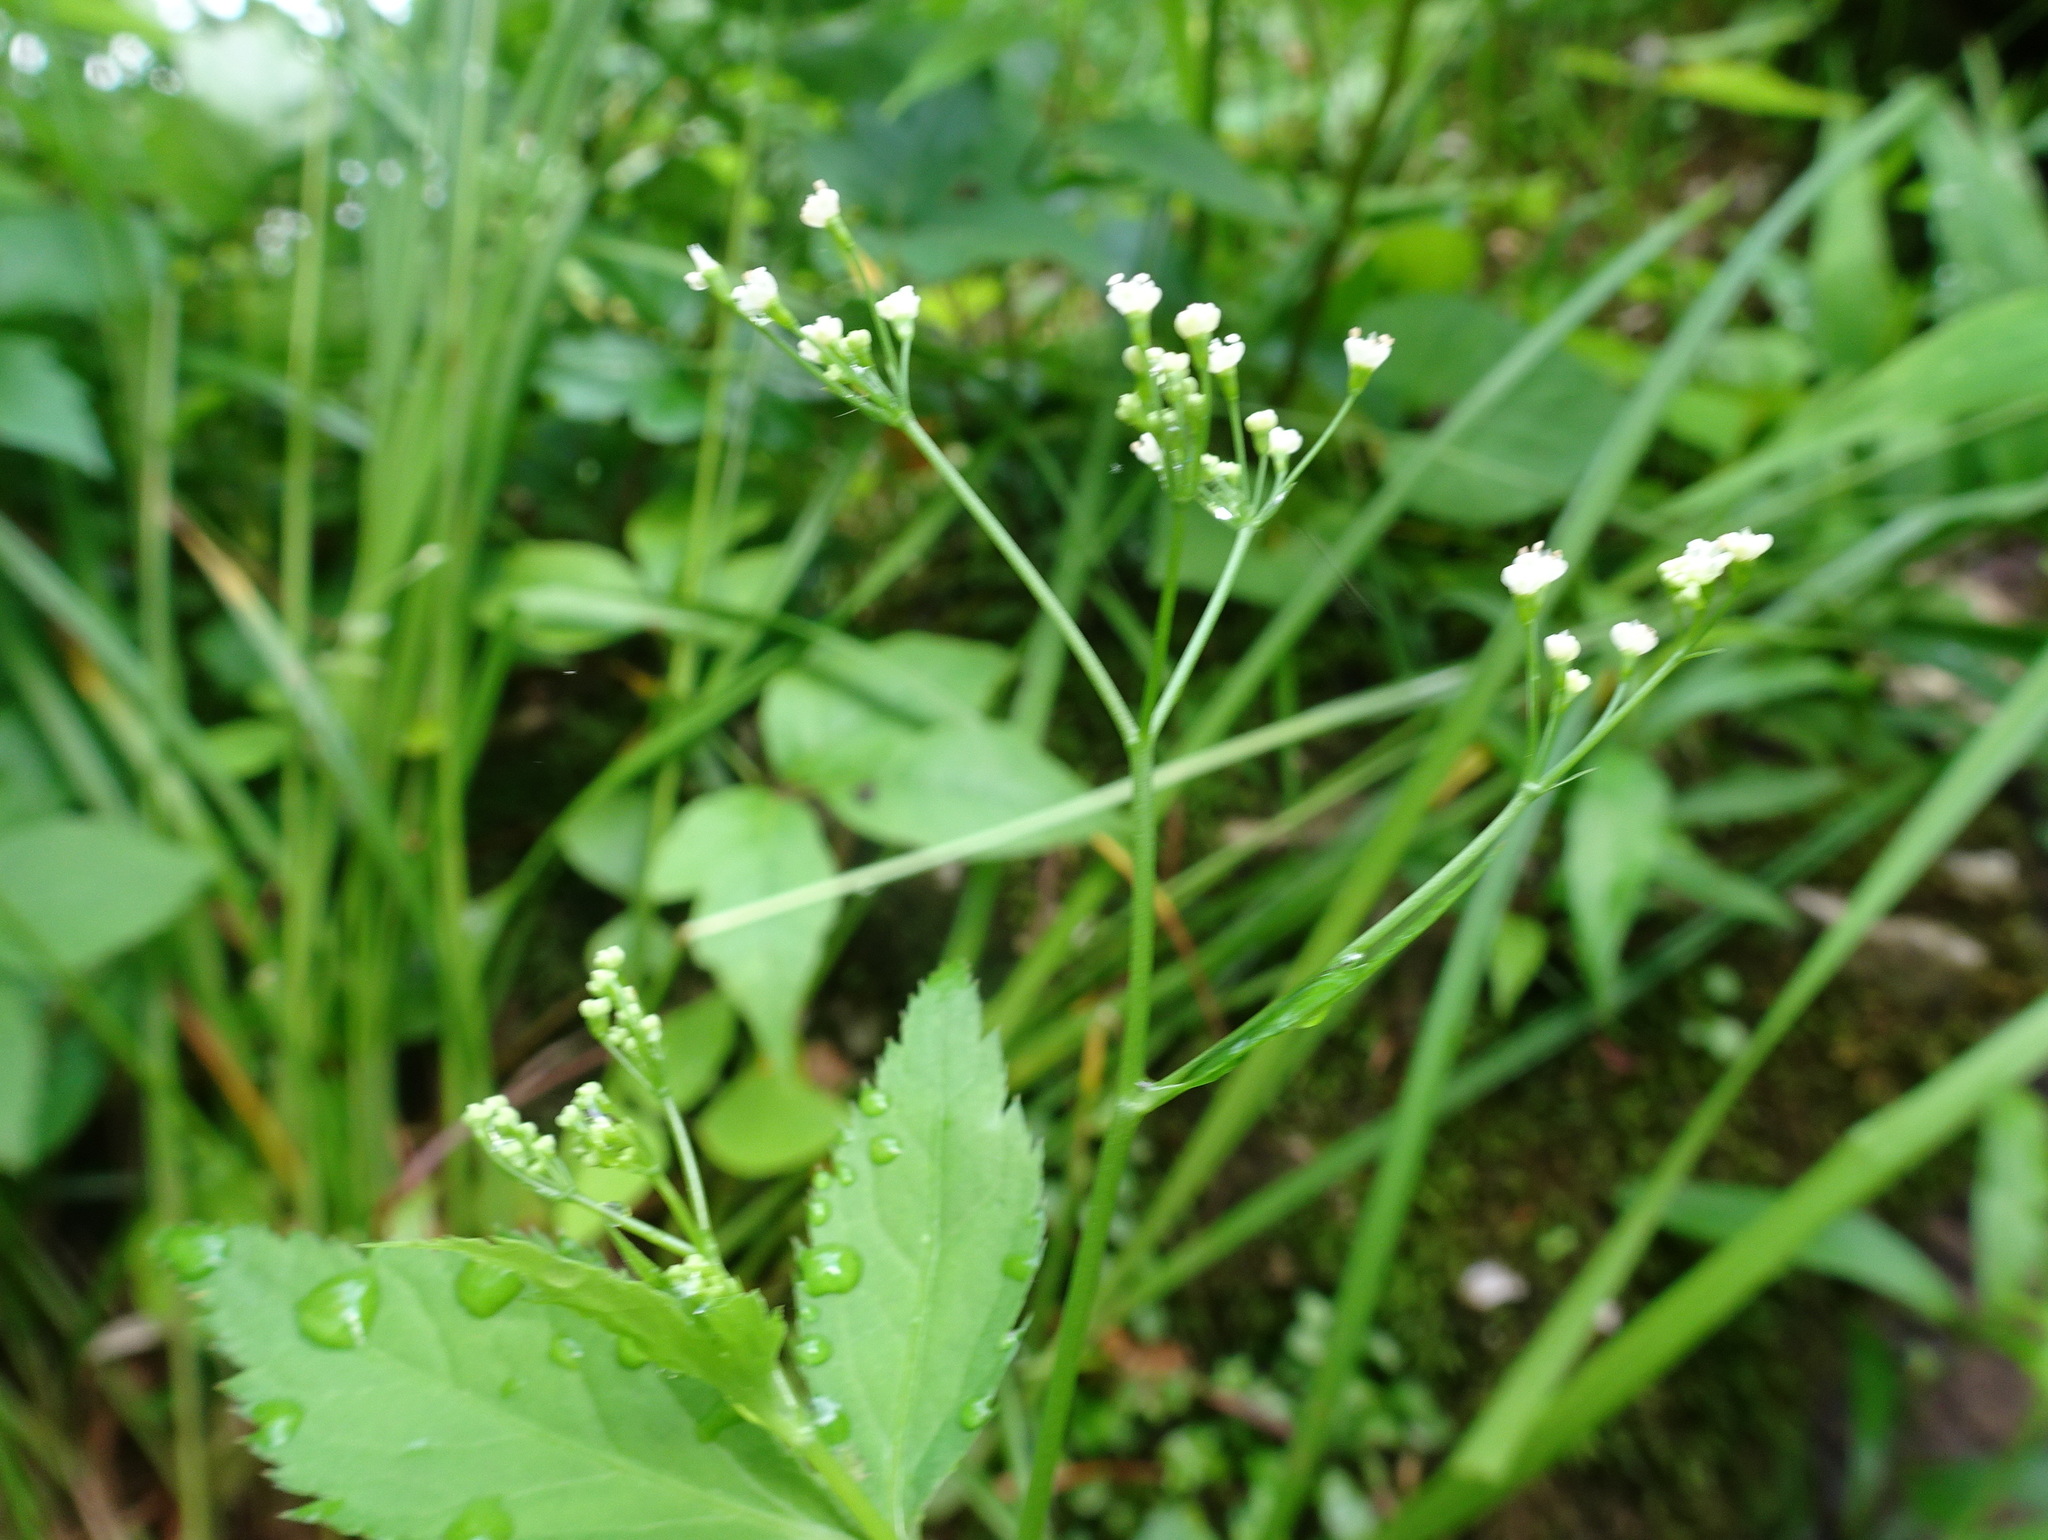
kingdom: Plantae
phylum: Tracheophyta
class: Magnoliopsida
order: Apiales
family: Apiaceae
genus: Cryptotaenia
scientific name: Cryptotaenia canadensis
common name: Honewort
